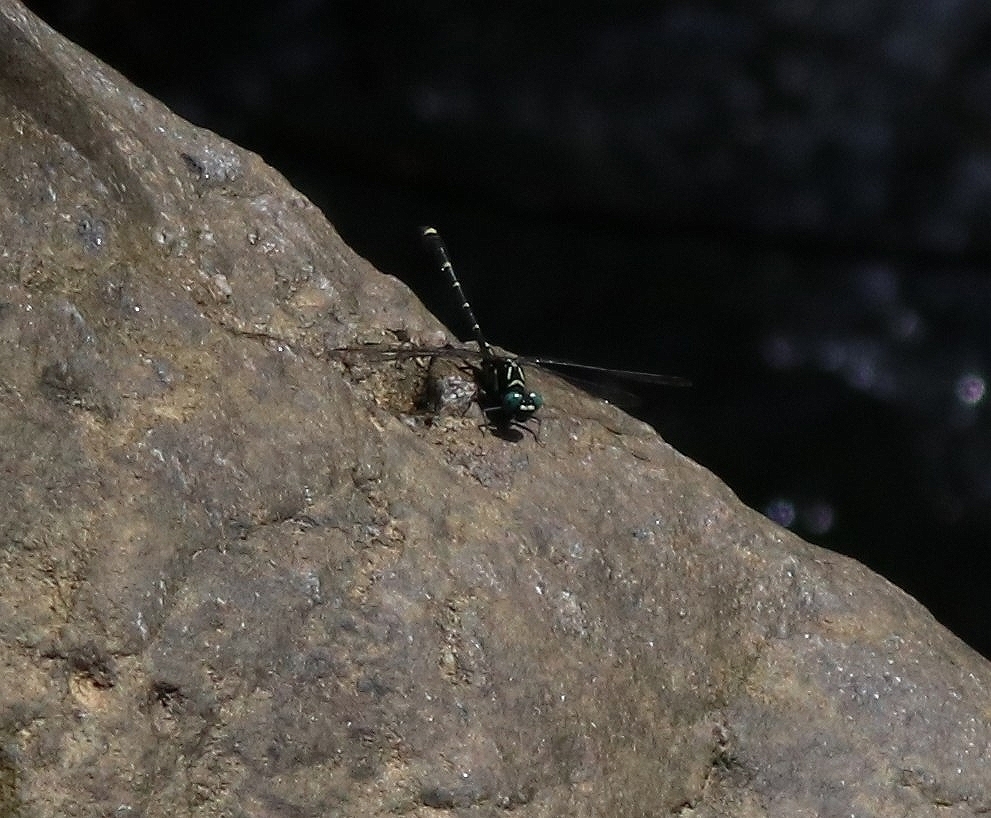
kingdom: Animalia
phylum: Arthropoda
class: Insecta
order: Odonata
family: Gomphidae
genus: Burmagomphus
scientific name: Burmagomphus laidlawi
